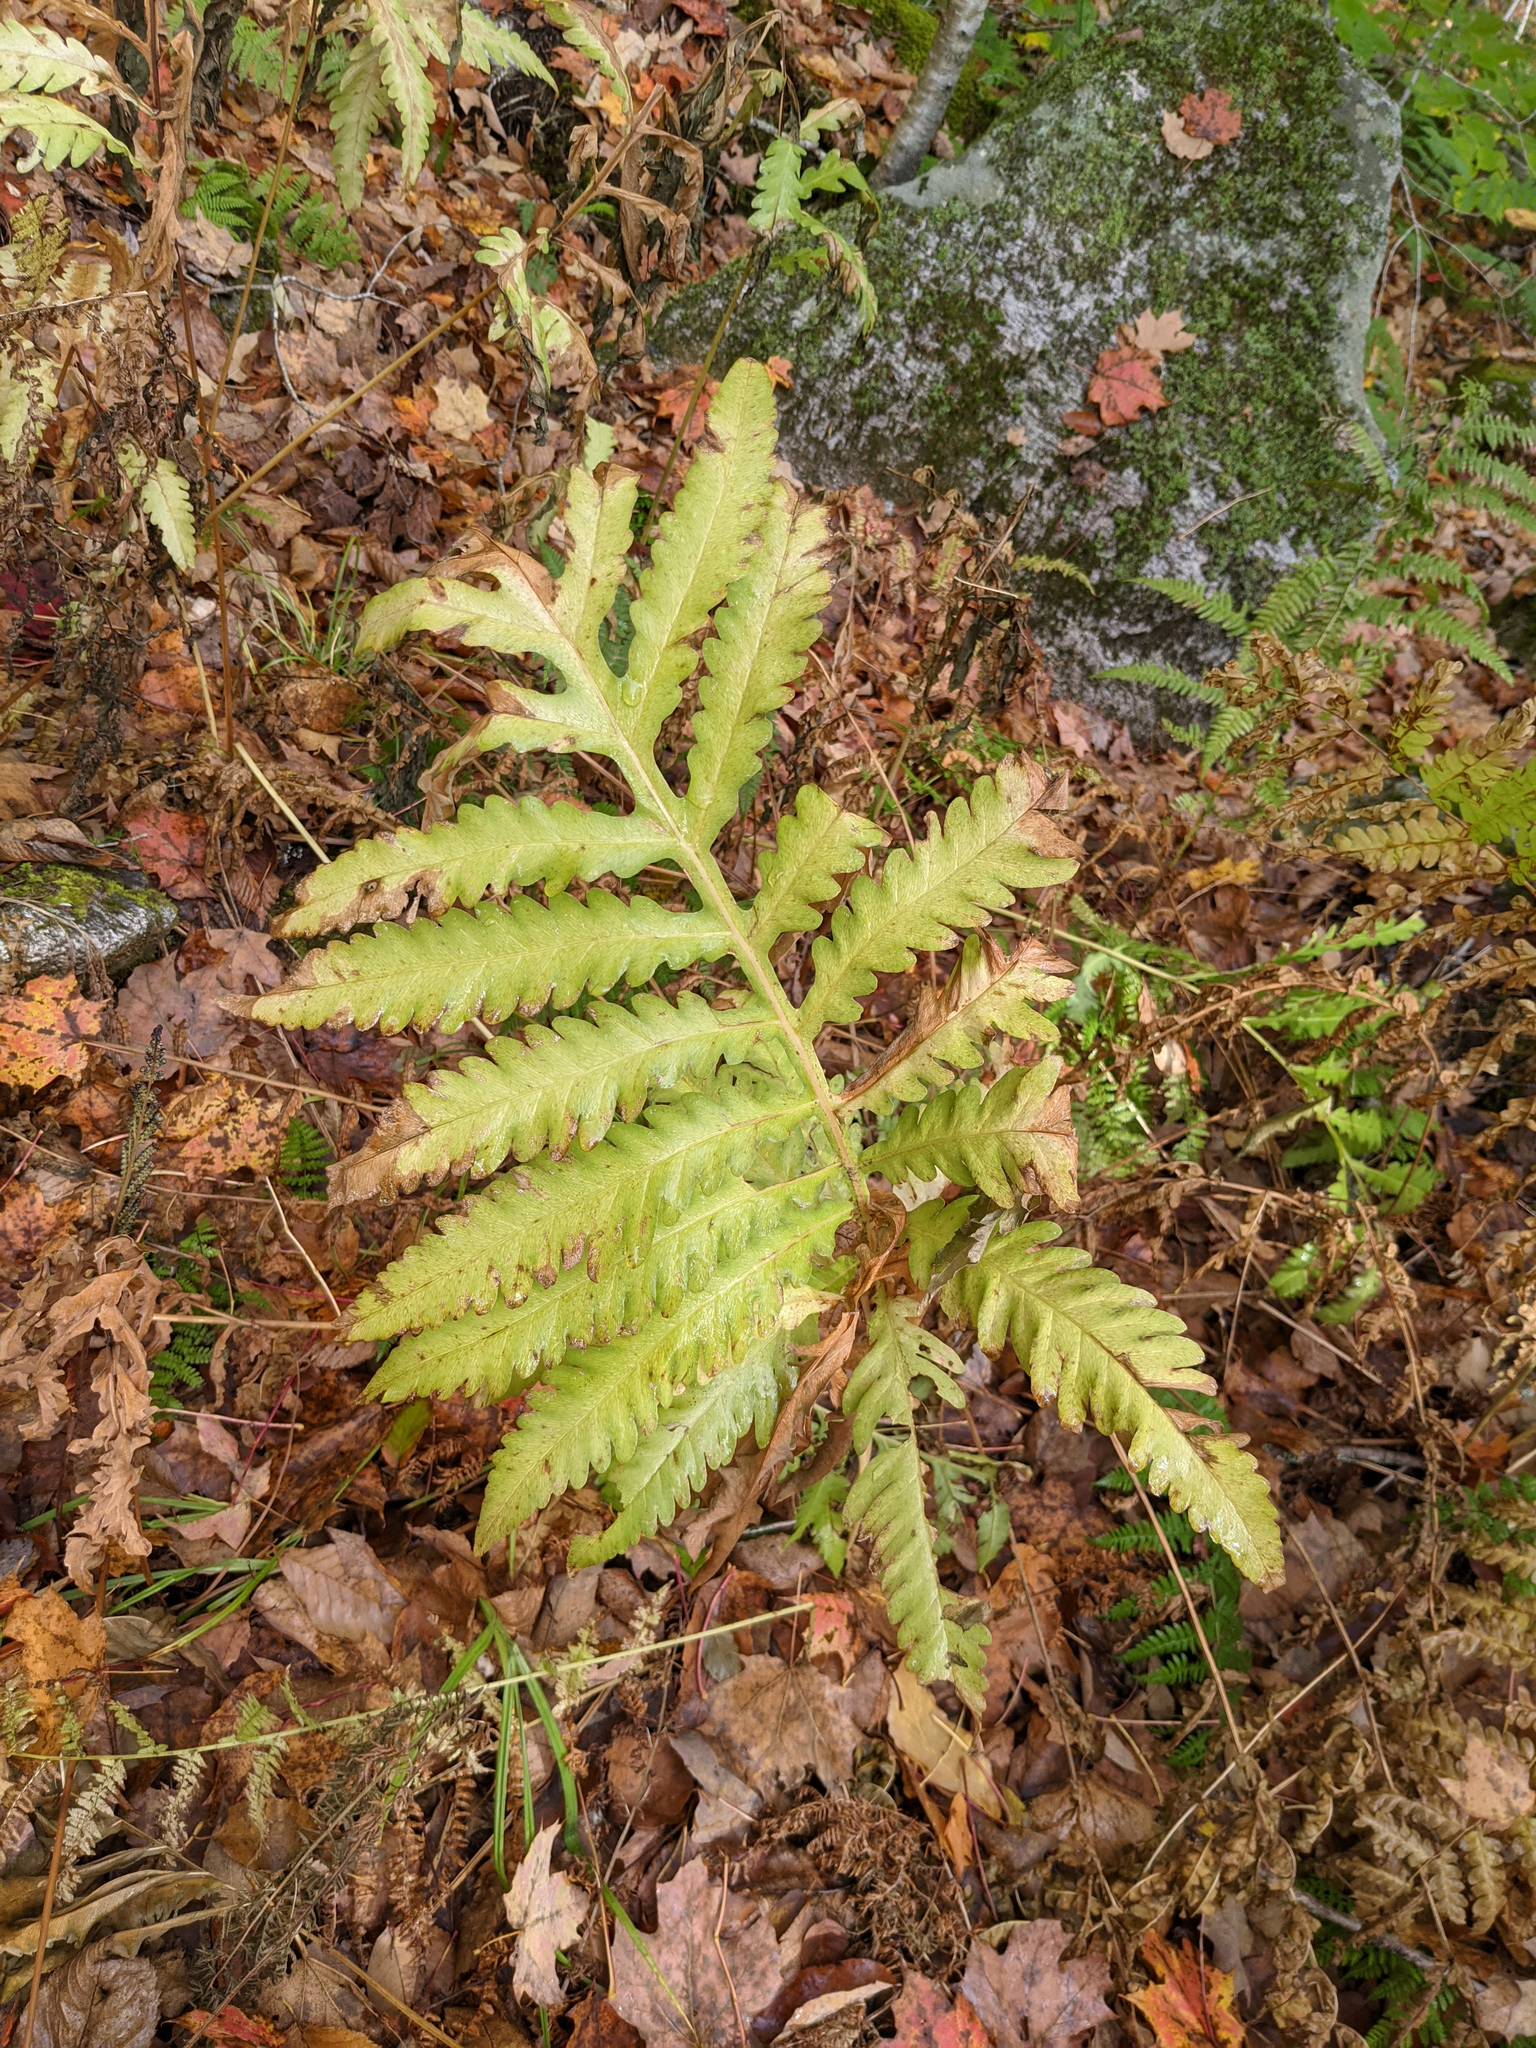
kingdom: Plantae
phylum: Tracheophyta
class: Polypodiopsida
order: Polypodiales
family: Onocleaceae
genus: Onoclea
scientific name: Onoclea sensibilis
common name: Sensitive fern
